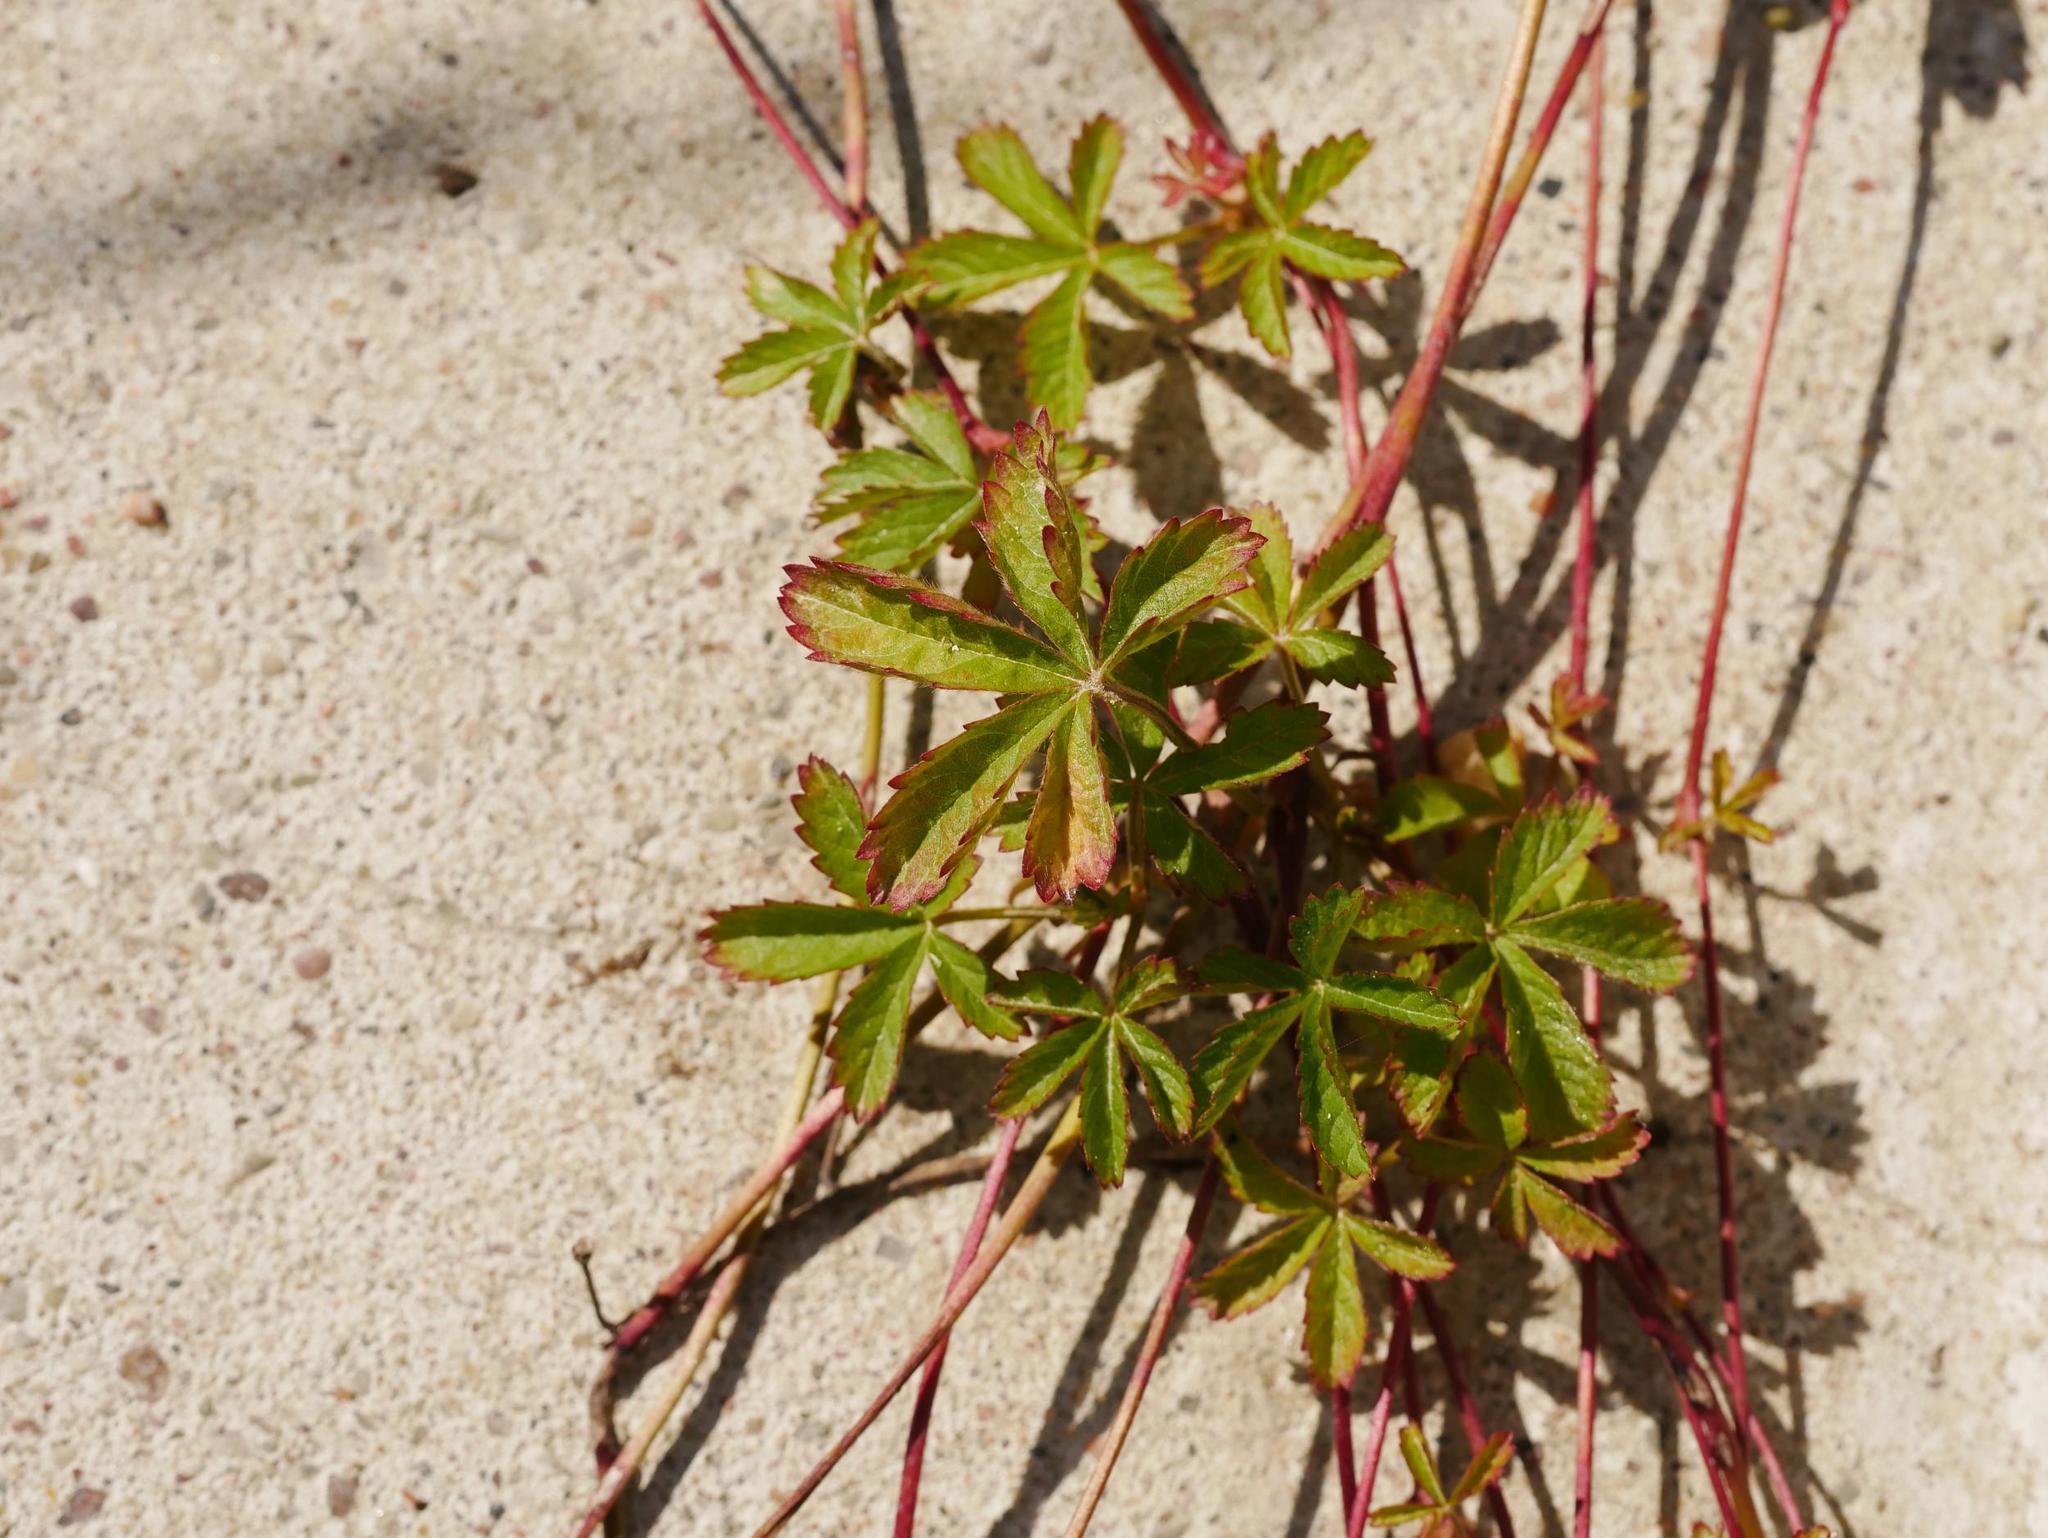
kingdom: Plantae
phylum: Tracheophyta
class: Magnoliopsida
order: Rosales
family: Rosaceae
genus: Potentilla
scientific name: Potentilla reptans
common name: Creeping cinquefoil
